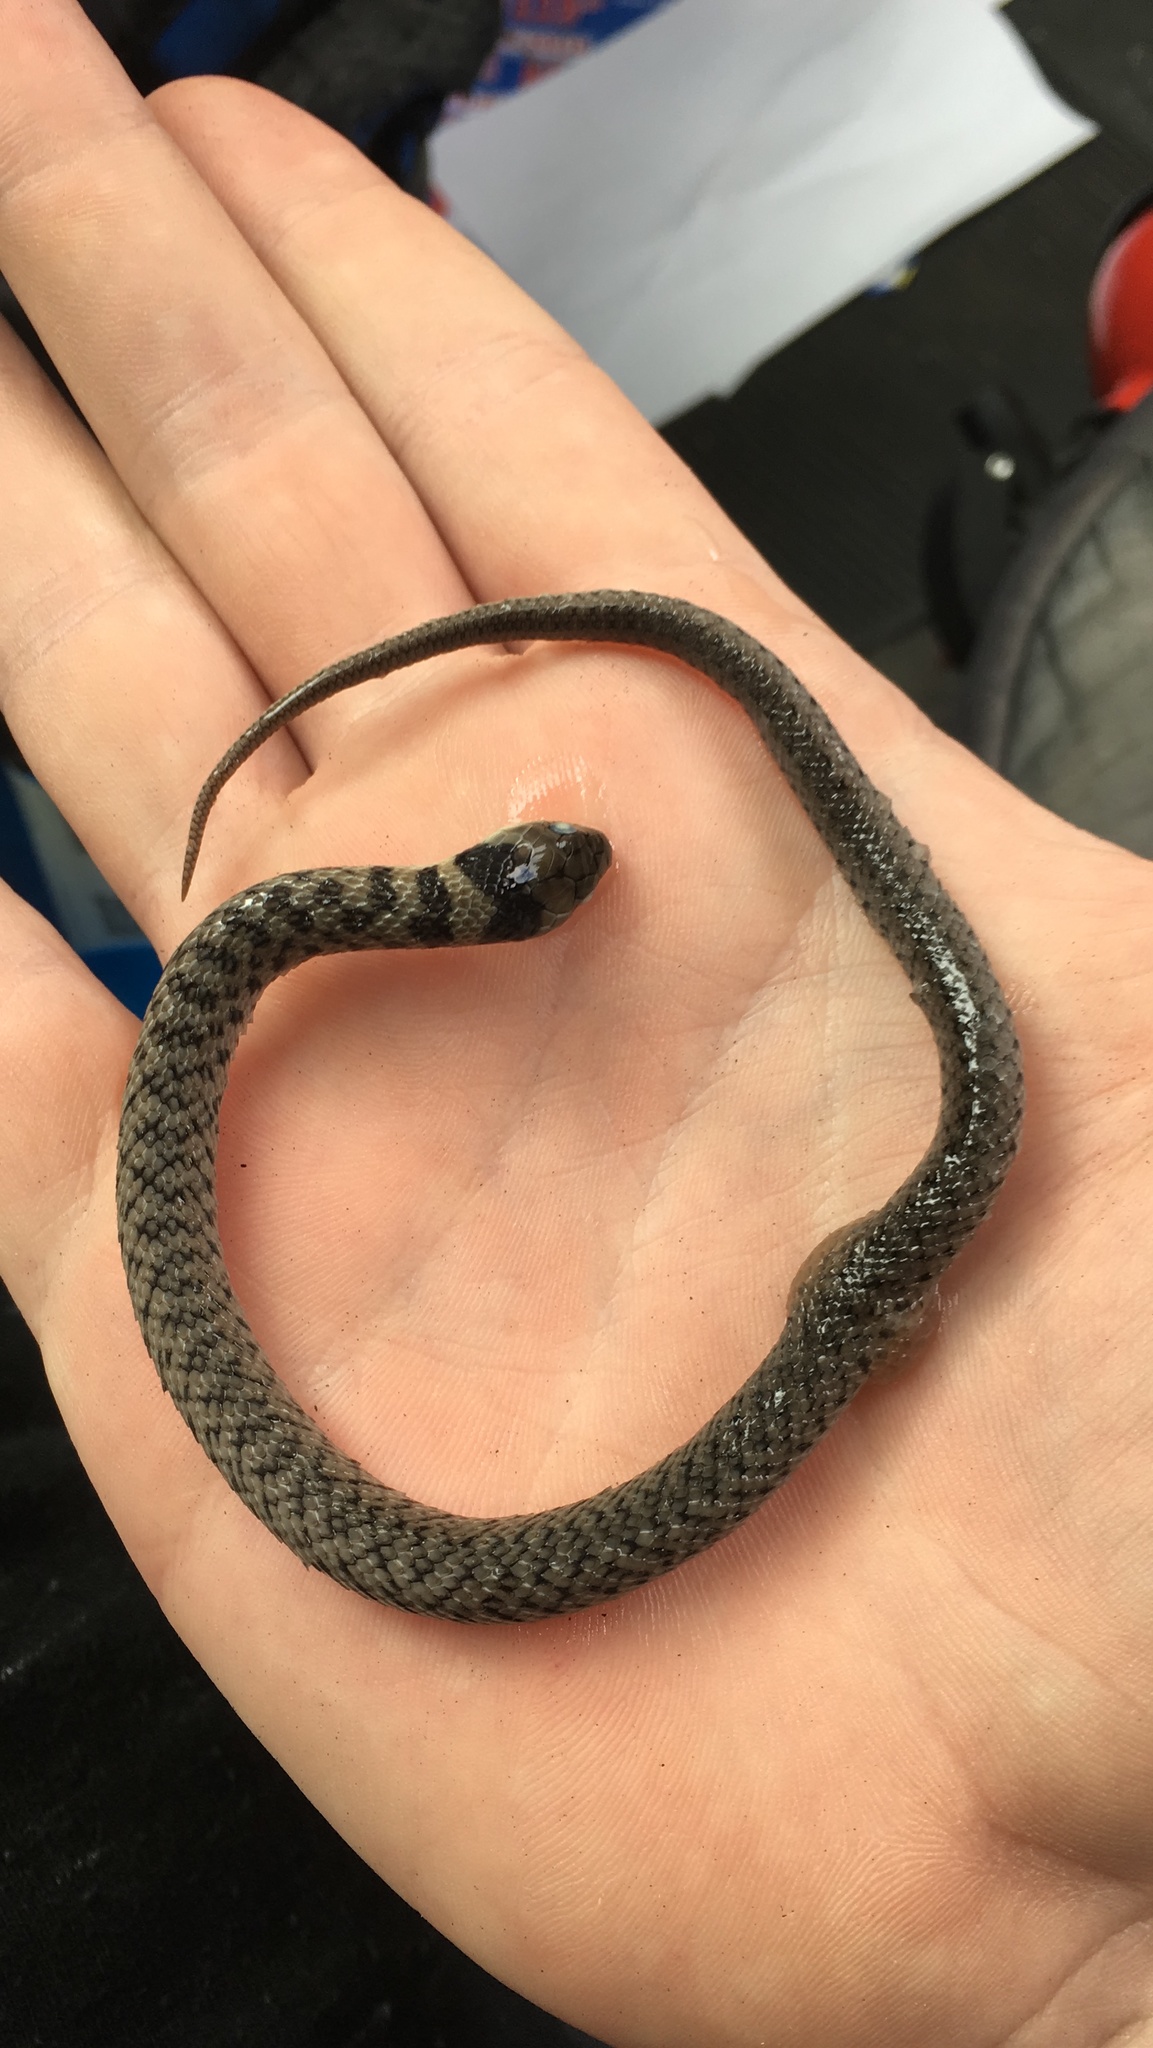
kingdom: Animalia
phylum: Chordata
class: Squamata
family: Colubridae
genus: Erythrolamprus
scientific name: Erythrolamprus poecilogyrus
